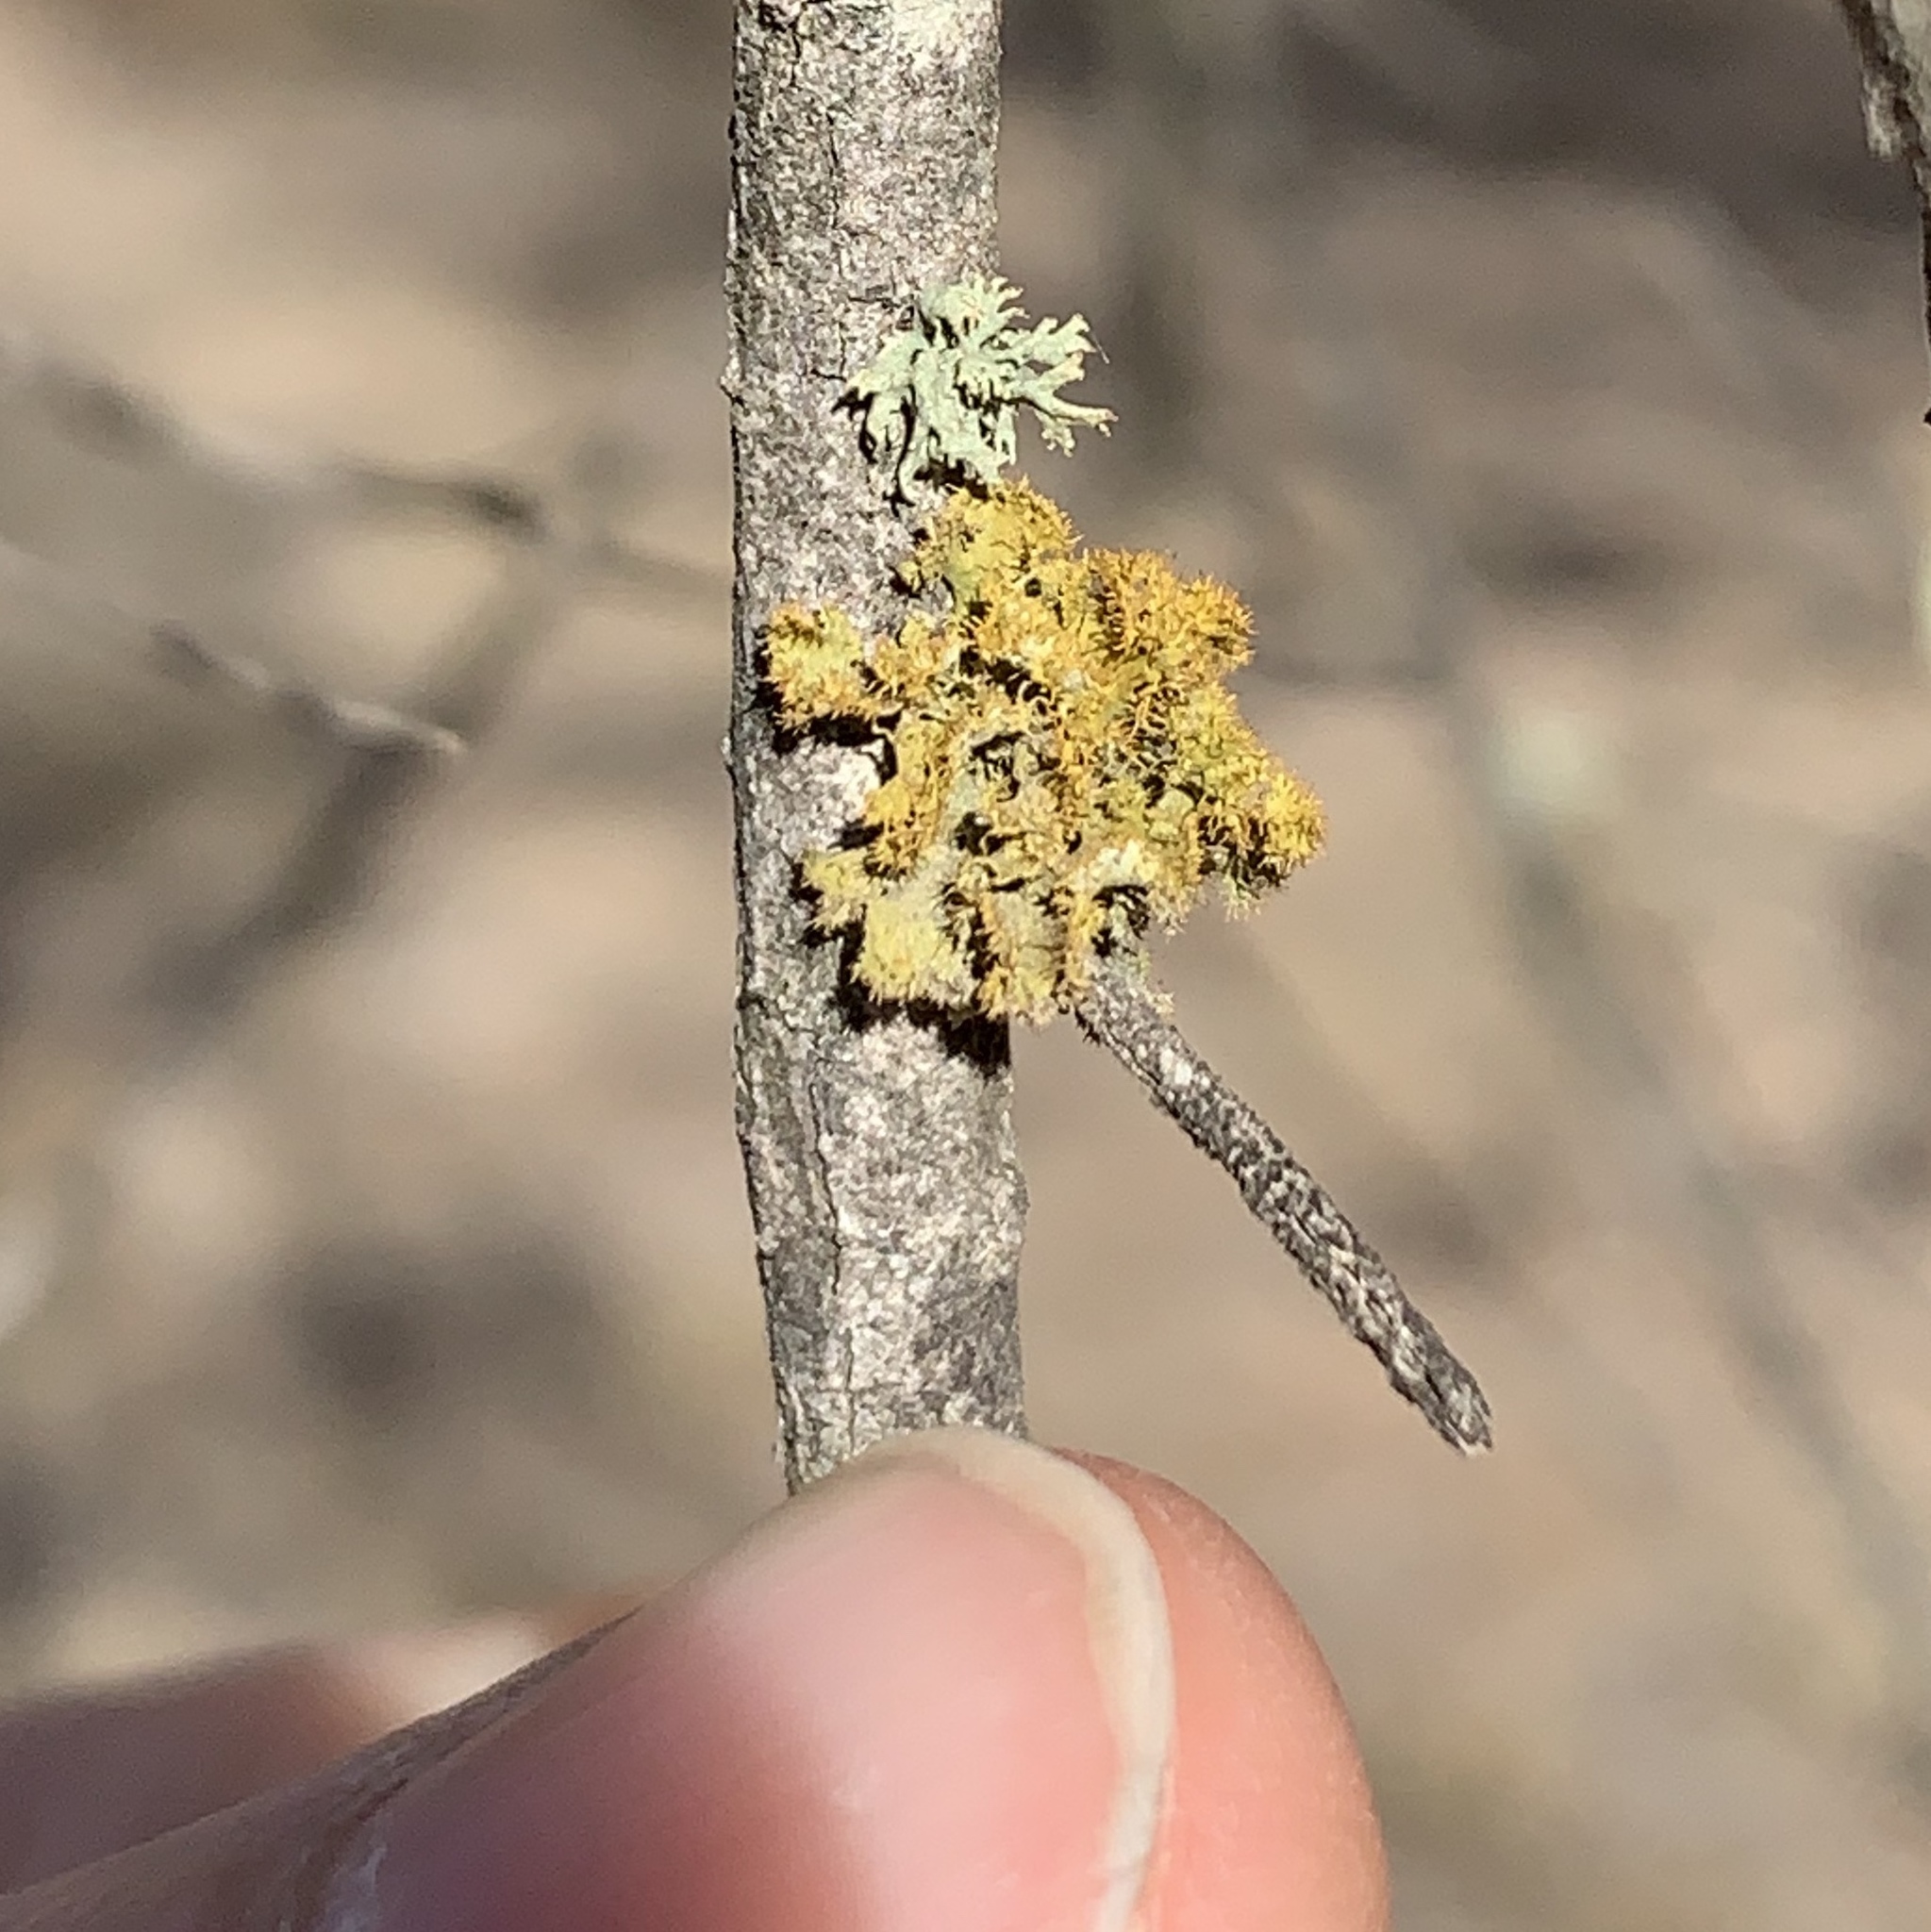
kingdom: Fungi
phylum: Ascomycota
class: Lecanoromycetes
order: Teloschistales
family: Teloschistaceae
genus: Niorma
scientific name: Niorma chrysophthalma
